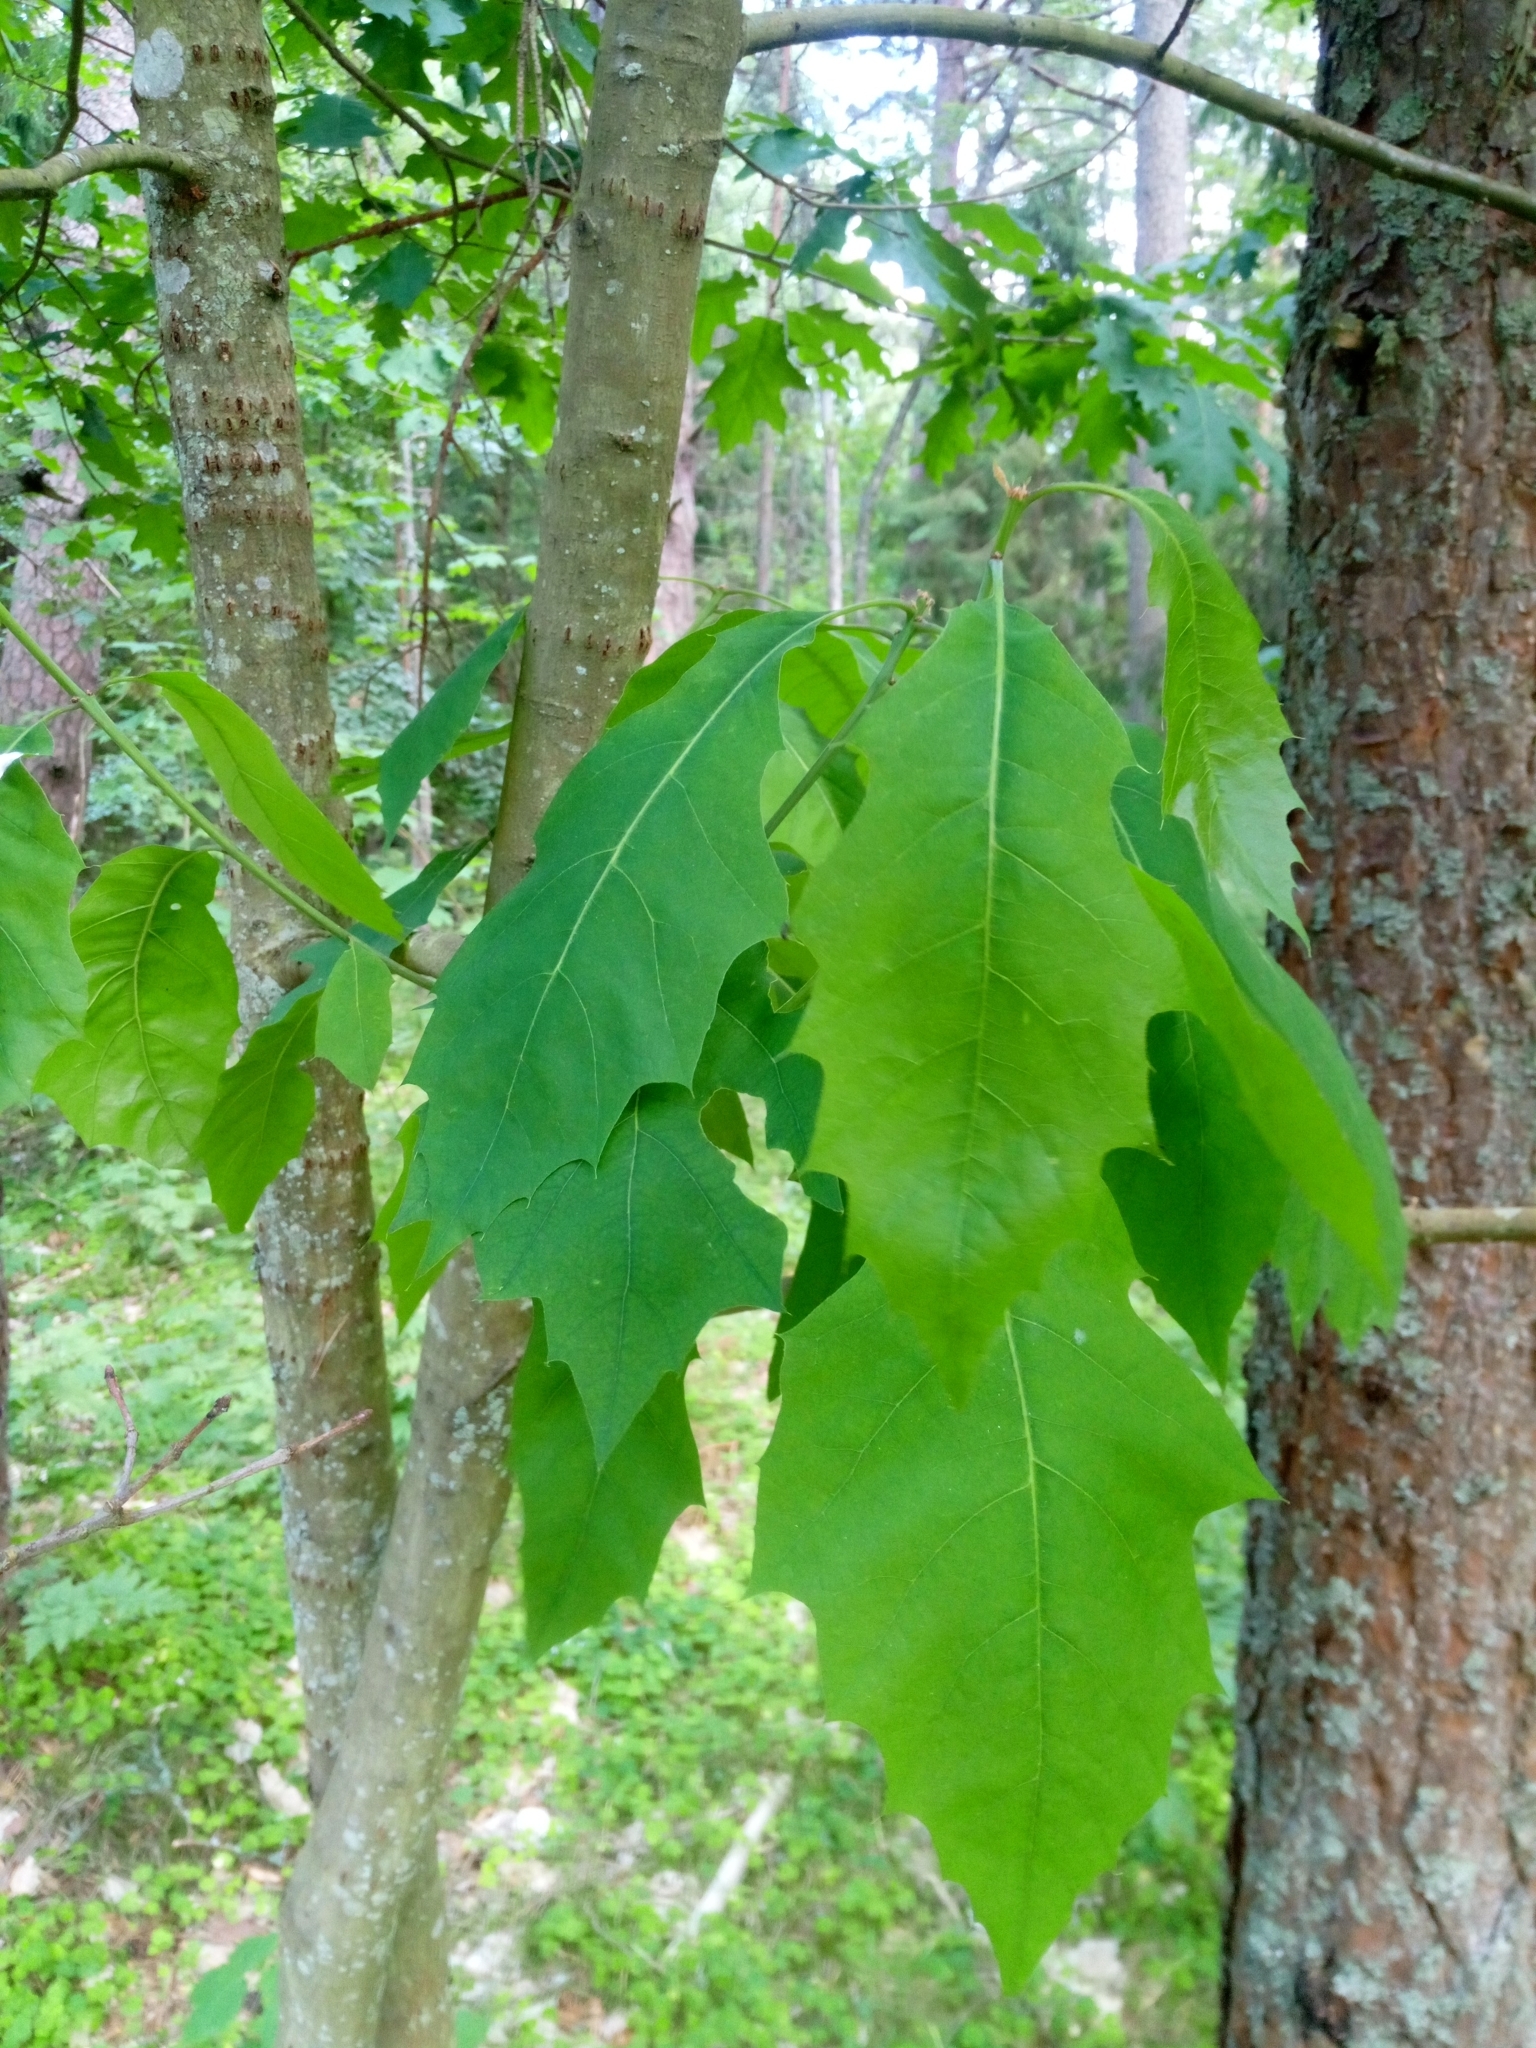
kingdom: Plantae
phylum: Tracheophyta
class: Magnoliopsida
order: Fagales
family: Fagaceae
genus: Quercus
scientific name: Quercus rubra
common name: Red oak
